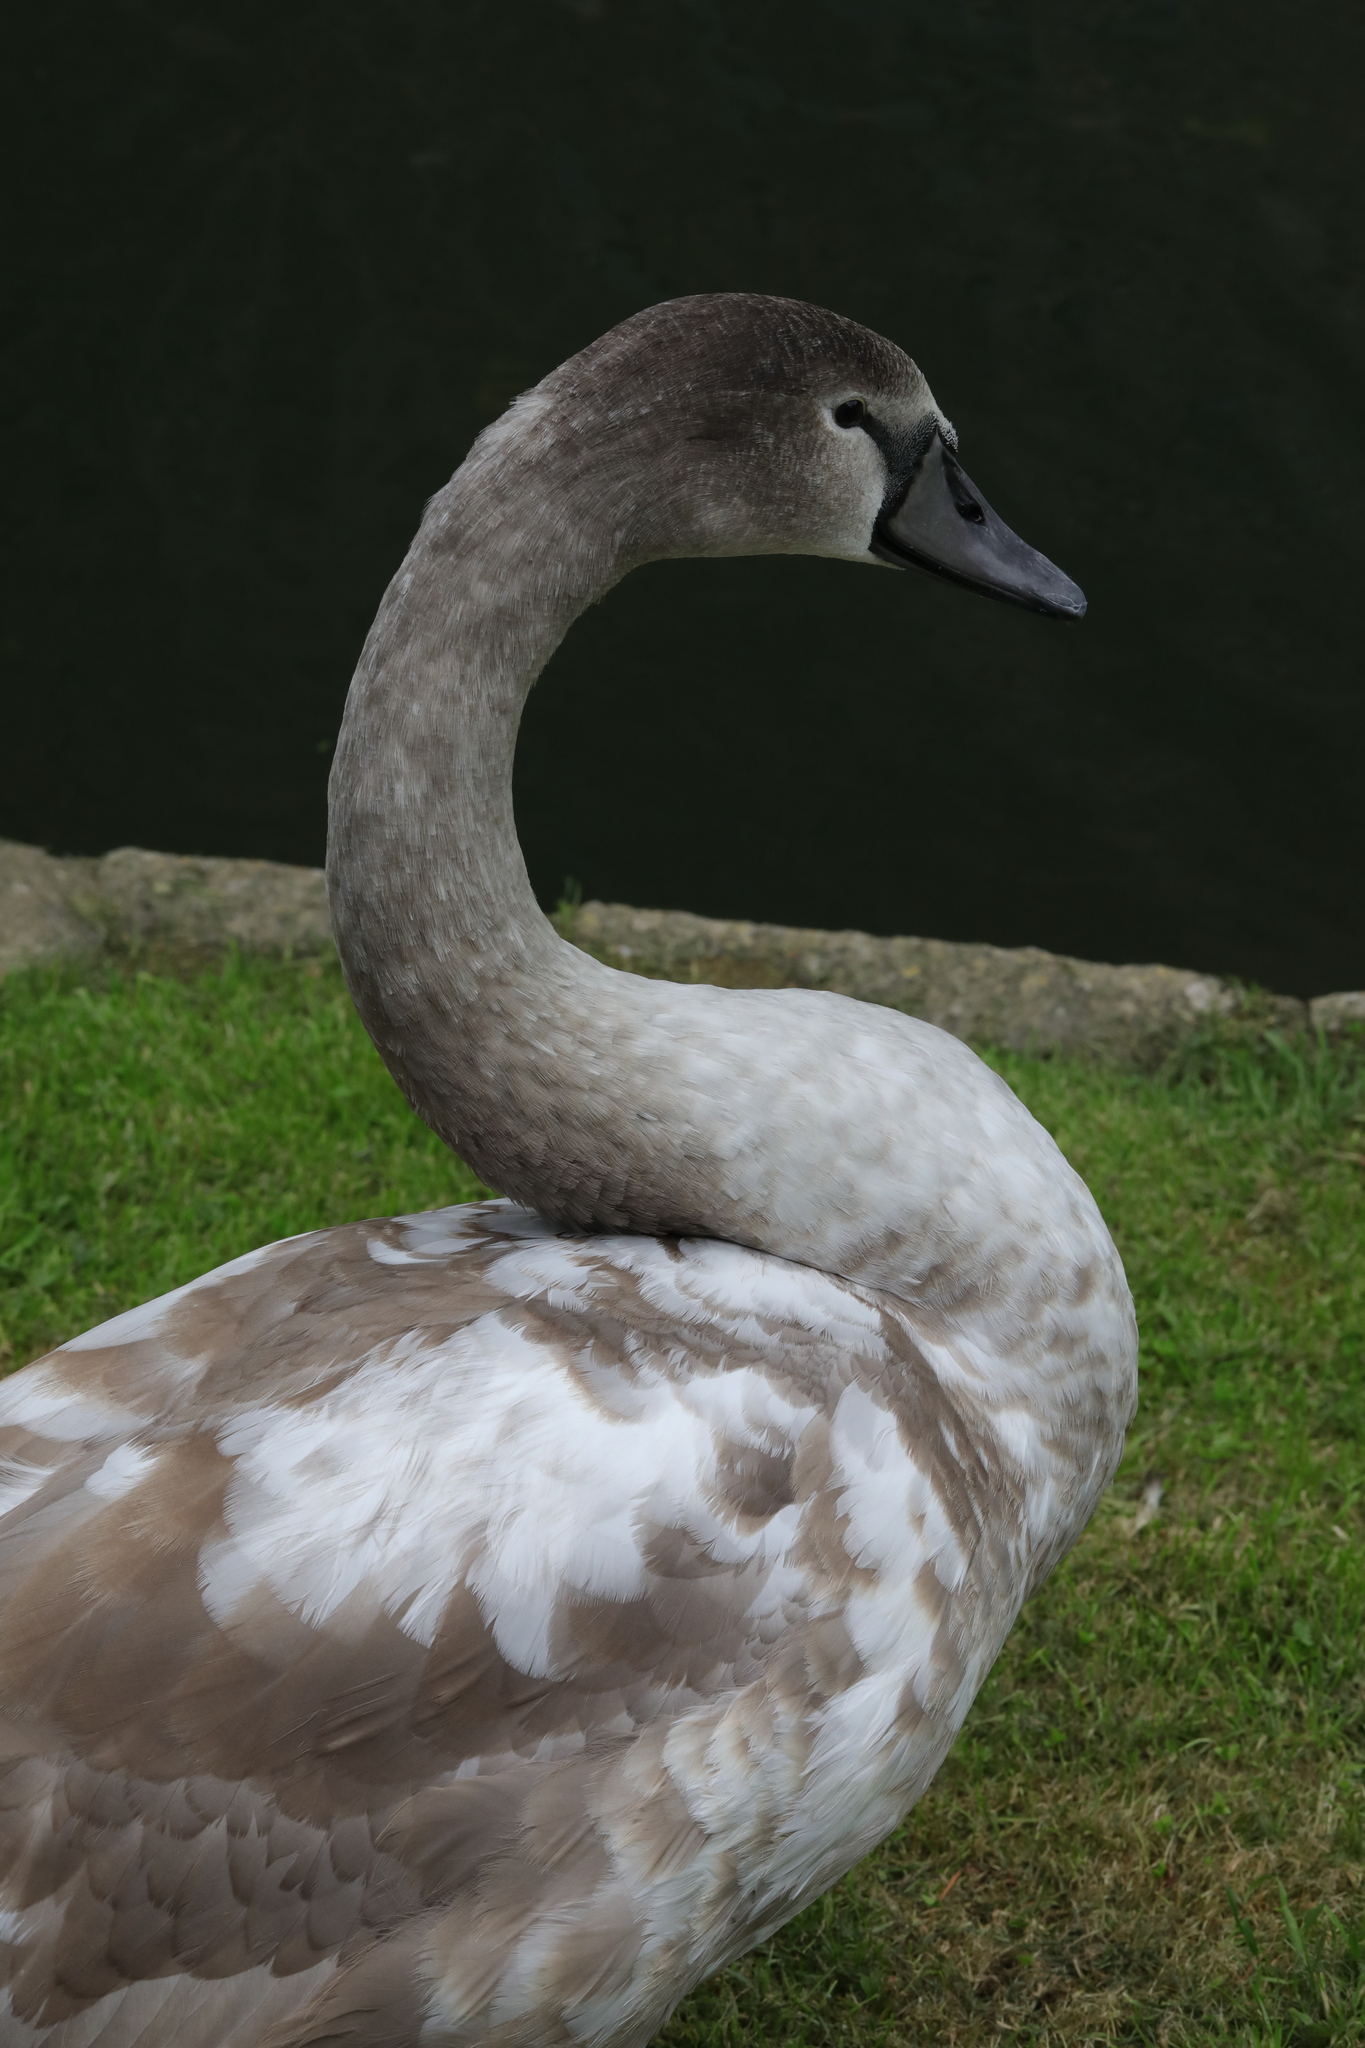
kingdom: Animalia
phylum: Chordata
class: Aves
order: Anseriformes
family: Anatidae
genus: Cygnus
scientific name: Cygnus olor
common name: Mute swan
